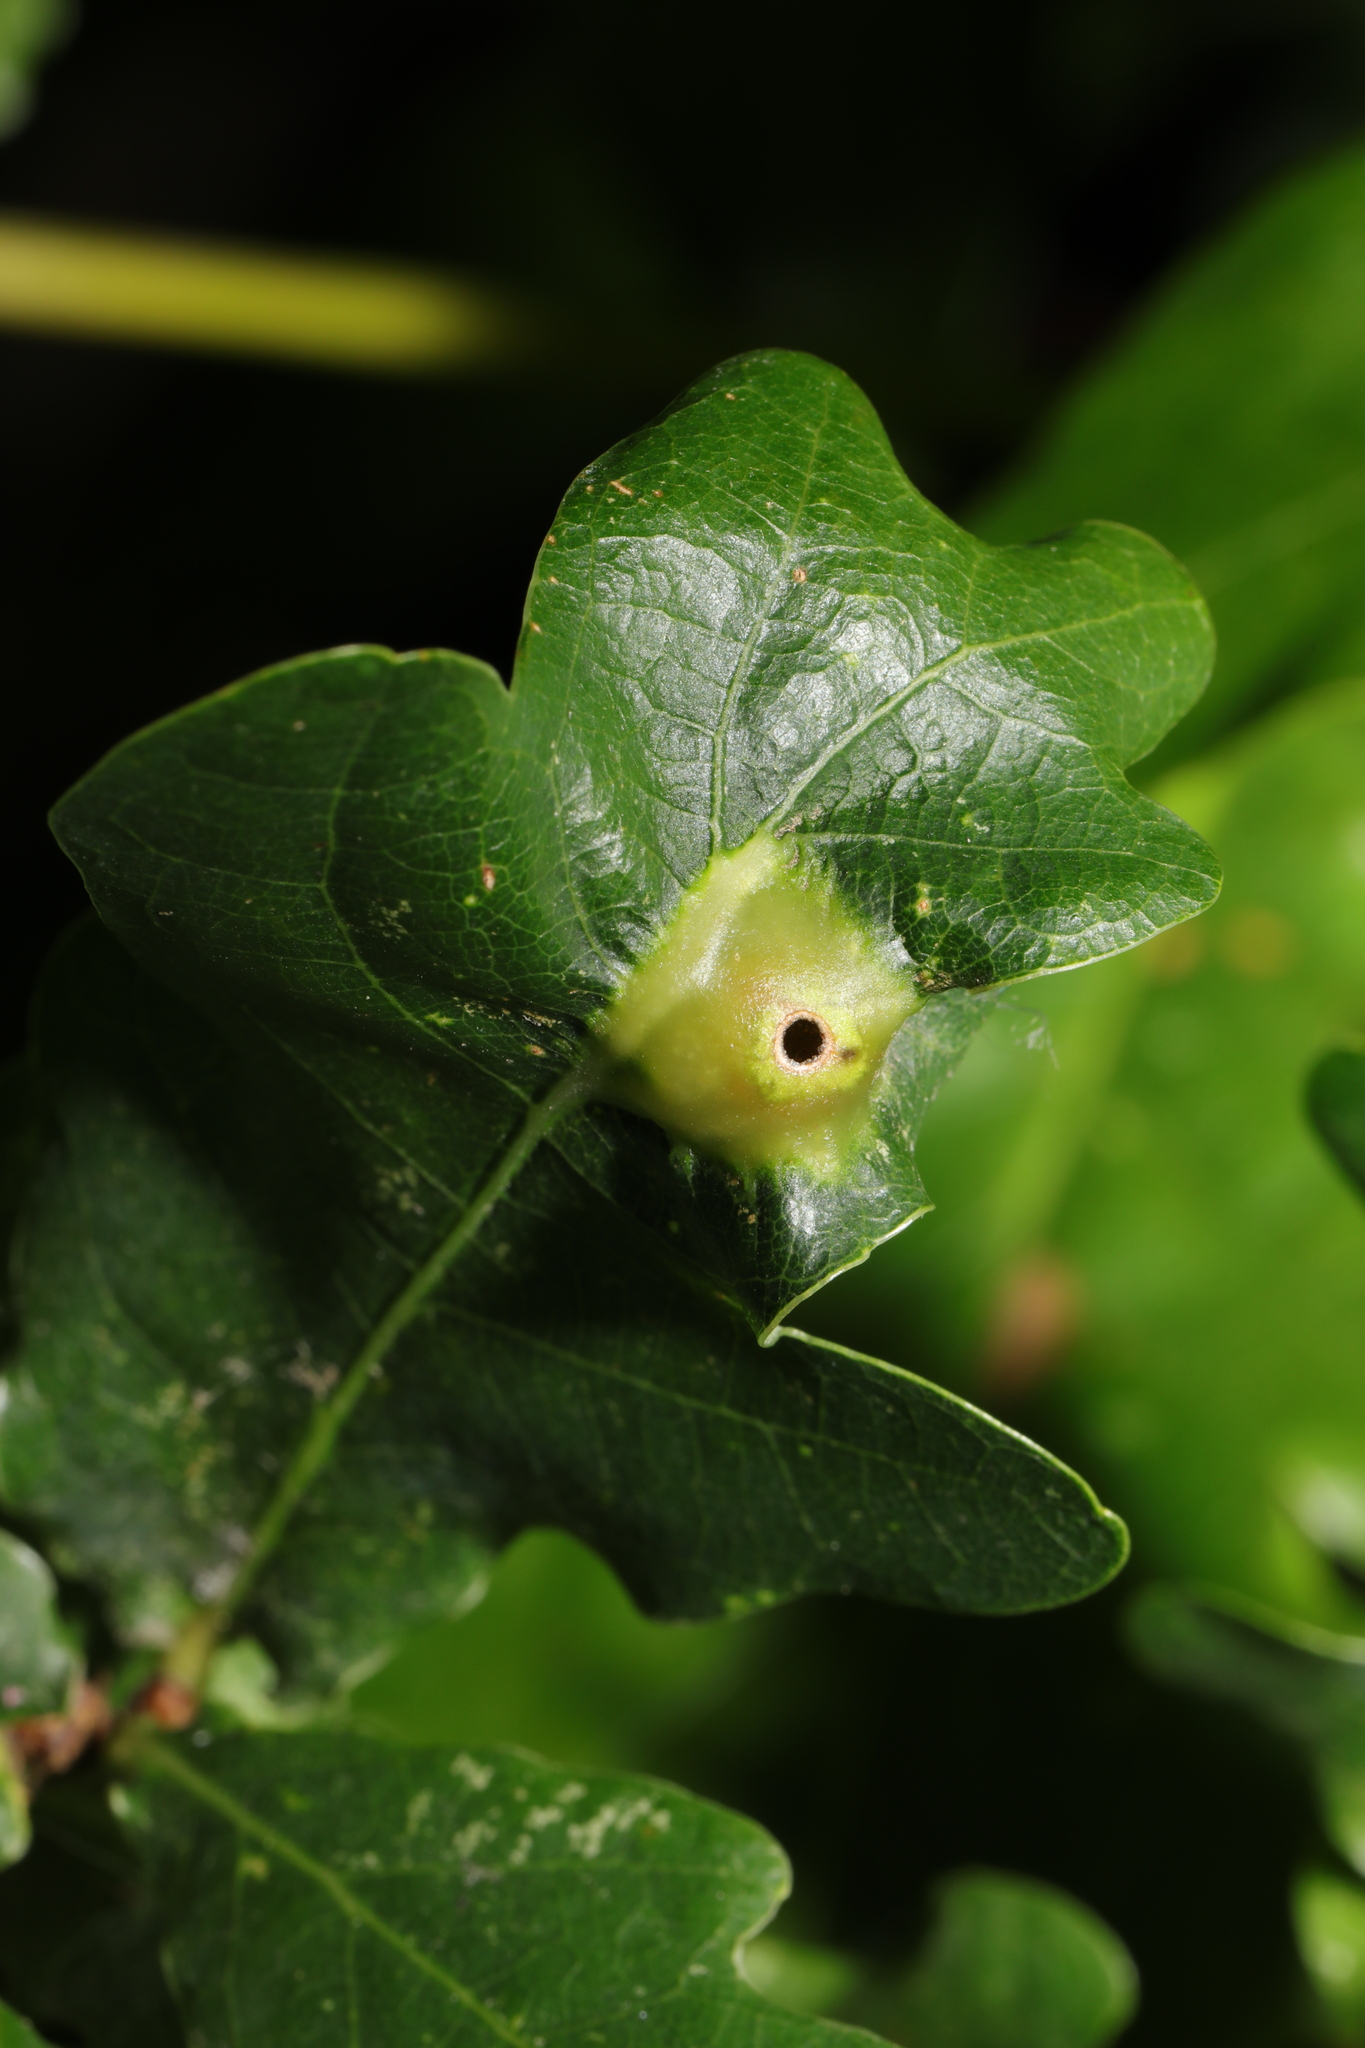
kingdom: Animalia
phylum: Arthropoda
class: Insecta
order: Hymenoptera
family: Cynipidae
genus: Andricus
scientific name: Andricus curvator
